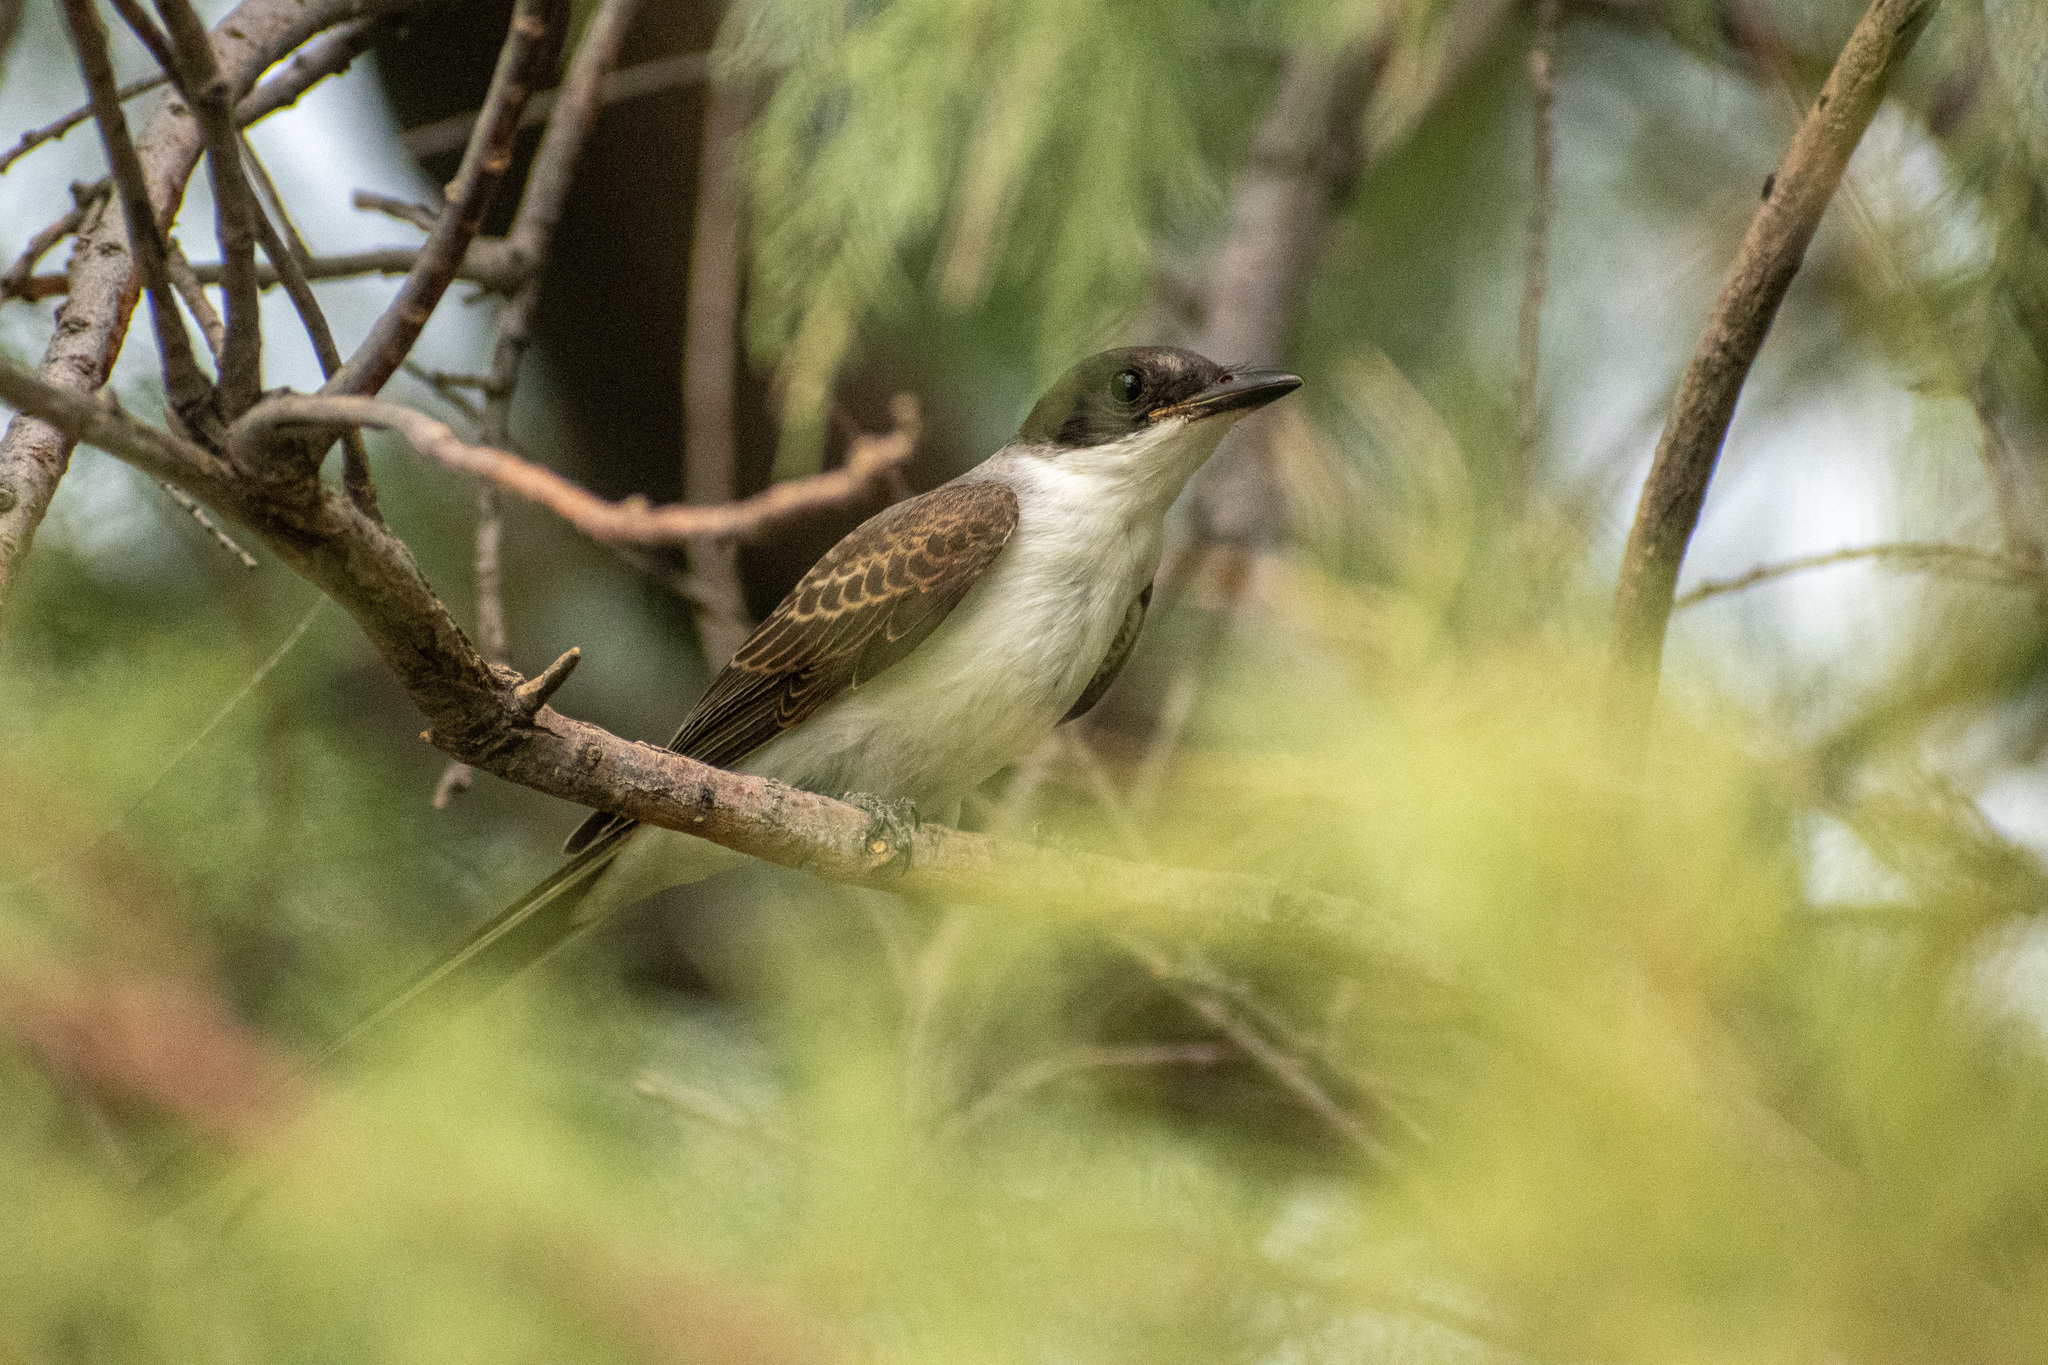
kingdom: Animalia
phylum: Chordata
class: Aves
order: Passeriformes
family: Tyrannidae
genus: Tyrannus
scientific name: Tyrannus savana
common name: Fork-tailed flycatcher
